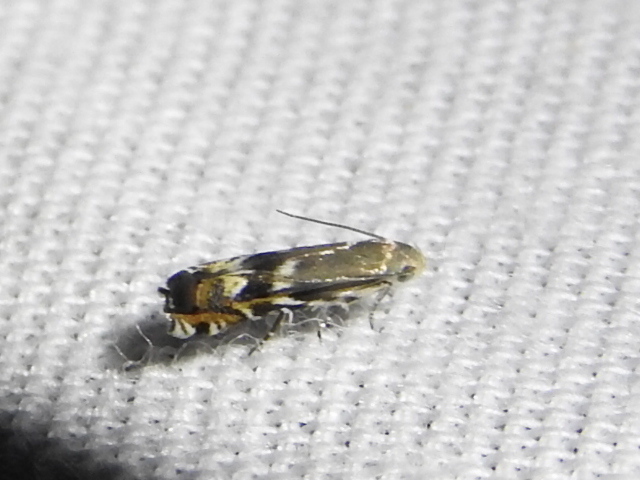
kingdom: Animalia
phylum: Arthropoda
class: Insecta
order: Lepidoptera
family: Gelechiidae
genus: Calliprora
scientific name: Calliprora sexstrigella
